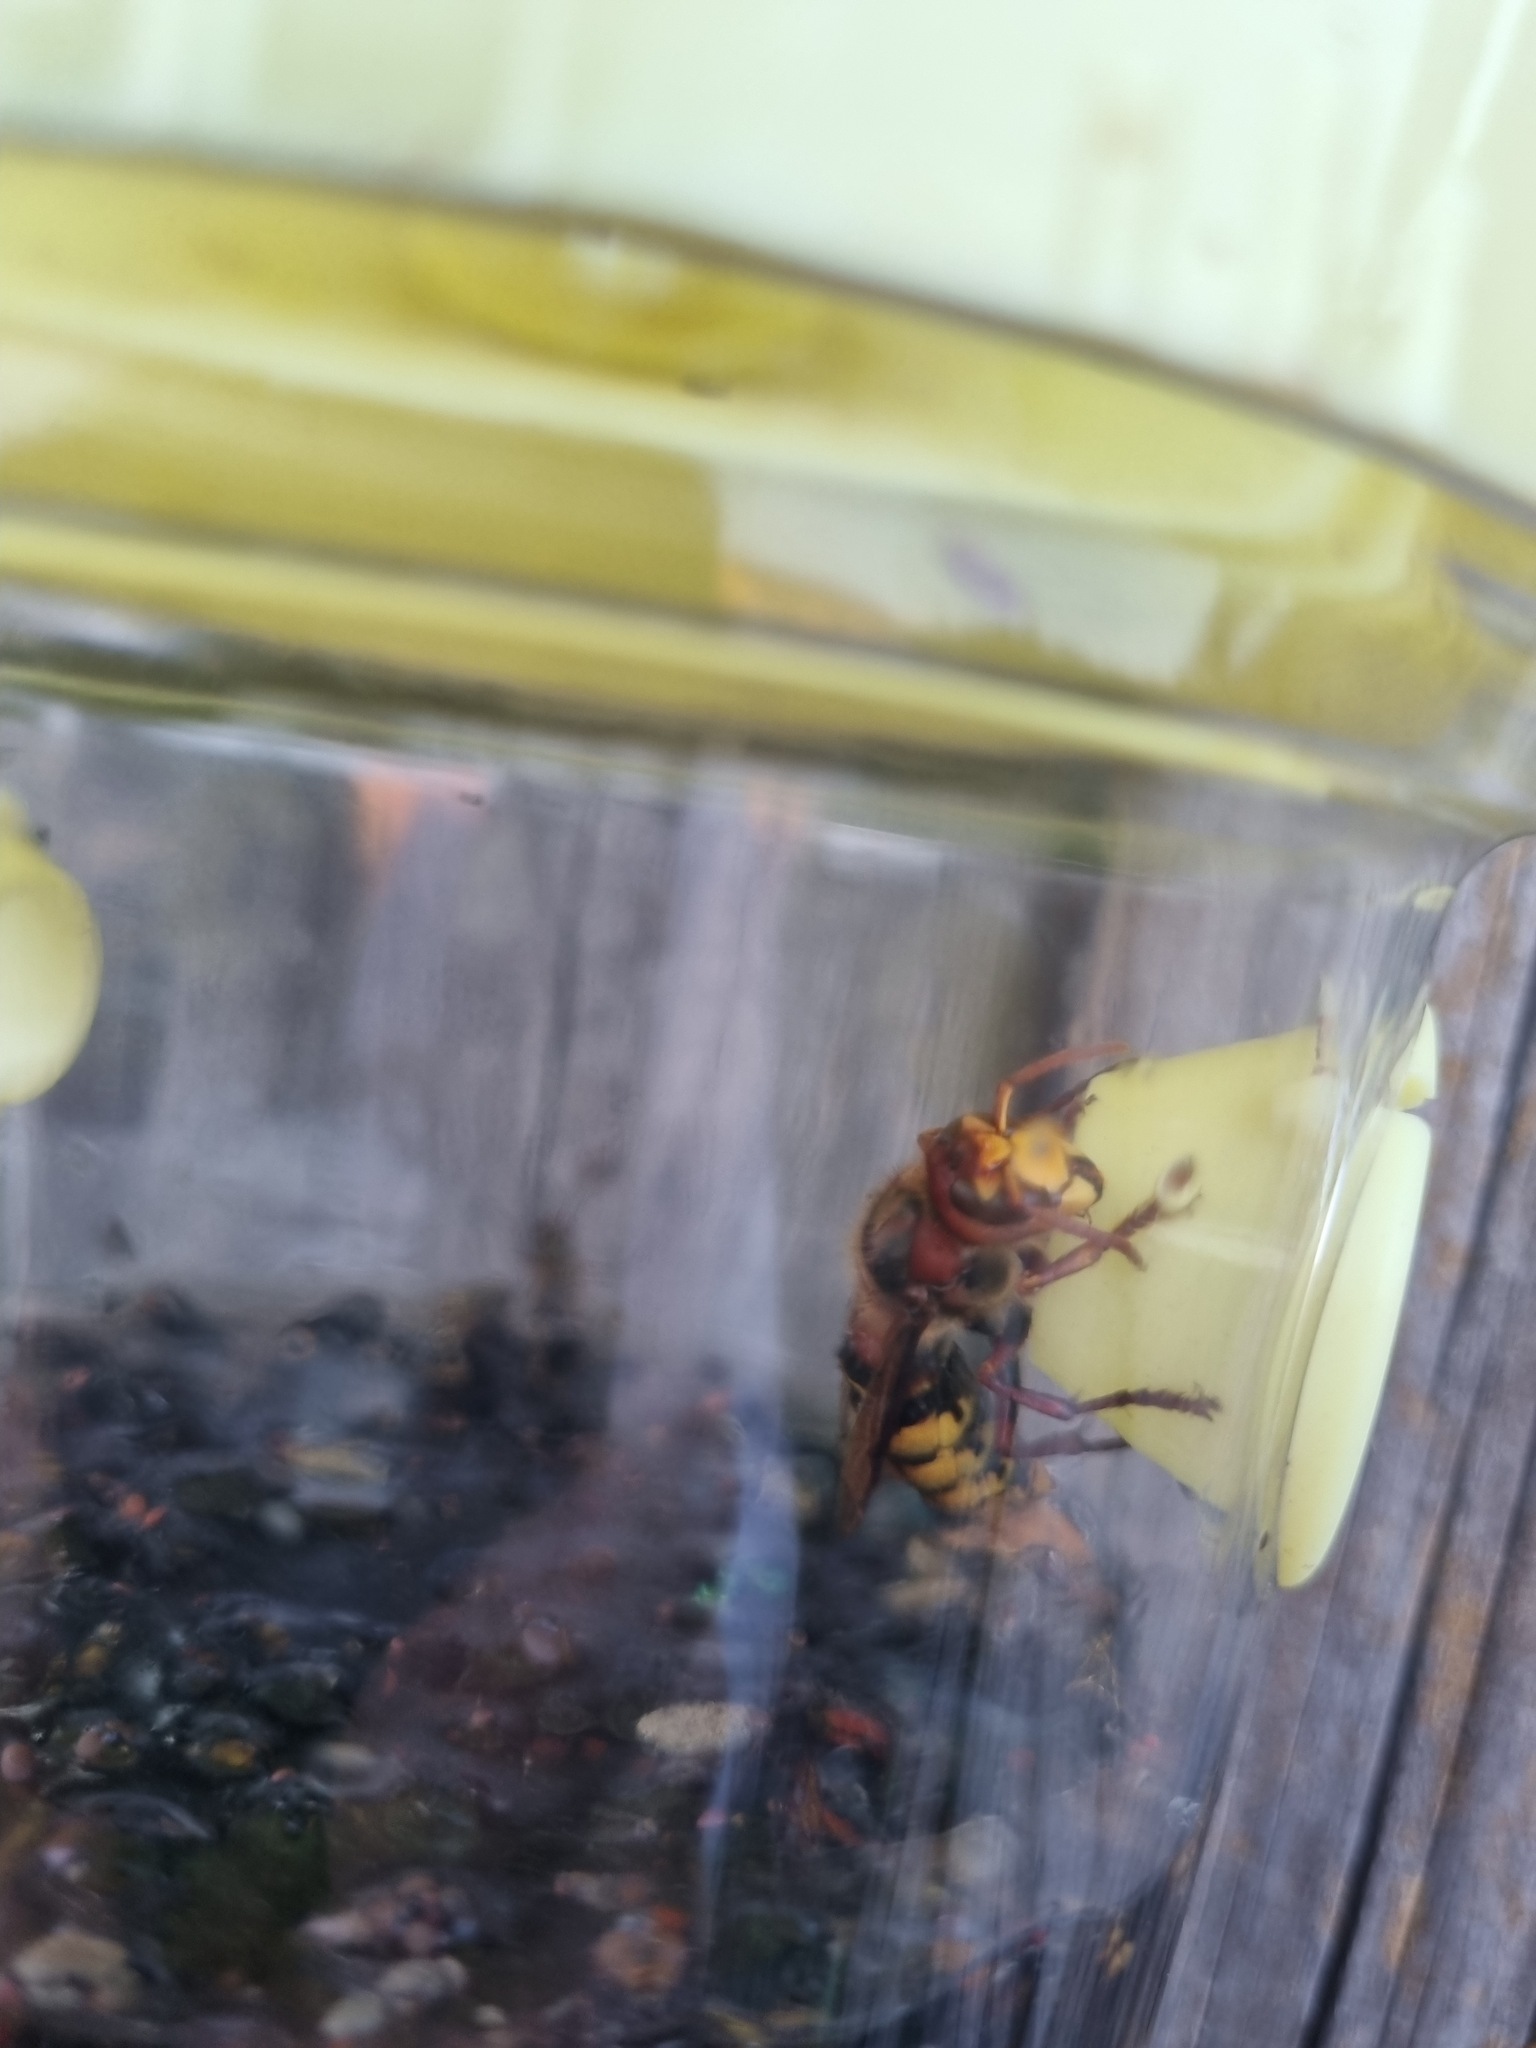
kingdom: Animalia
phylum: Arthropoda
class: Insecta
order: Hymenoptera
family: Vespidae
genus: Vespa
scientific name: Vespa crabro
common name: Hornet
